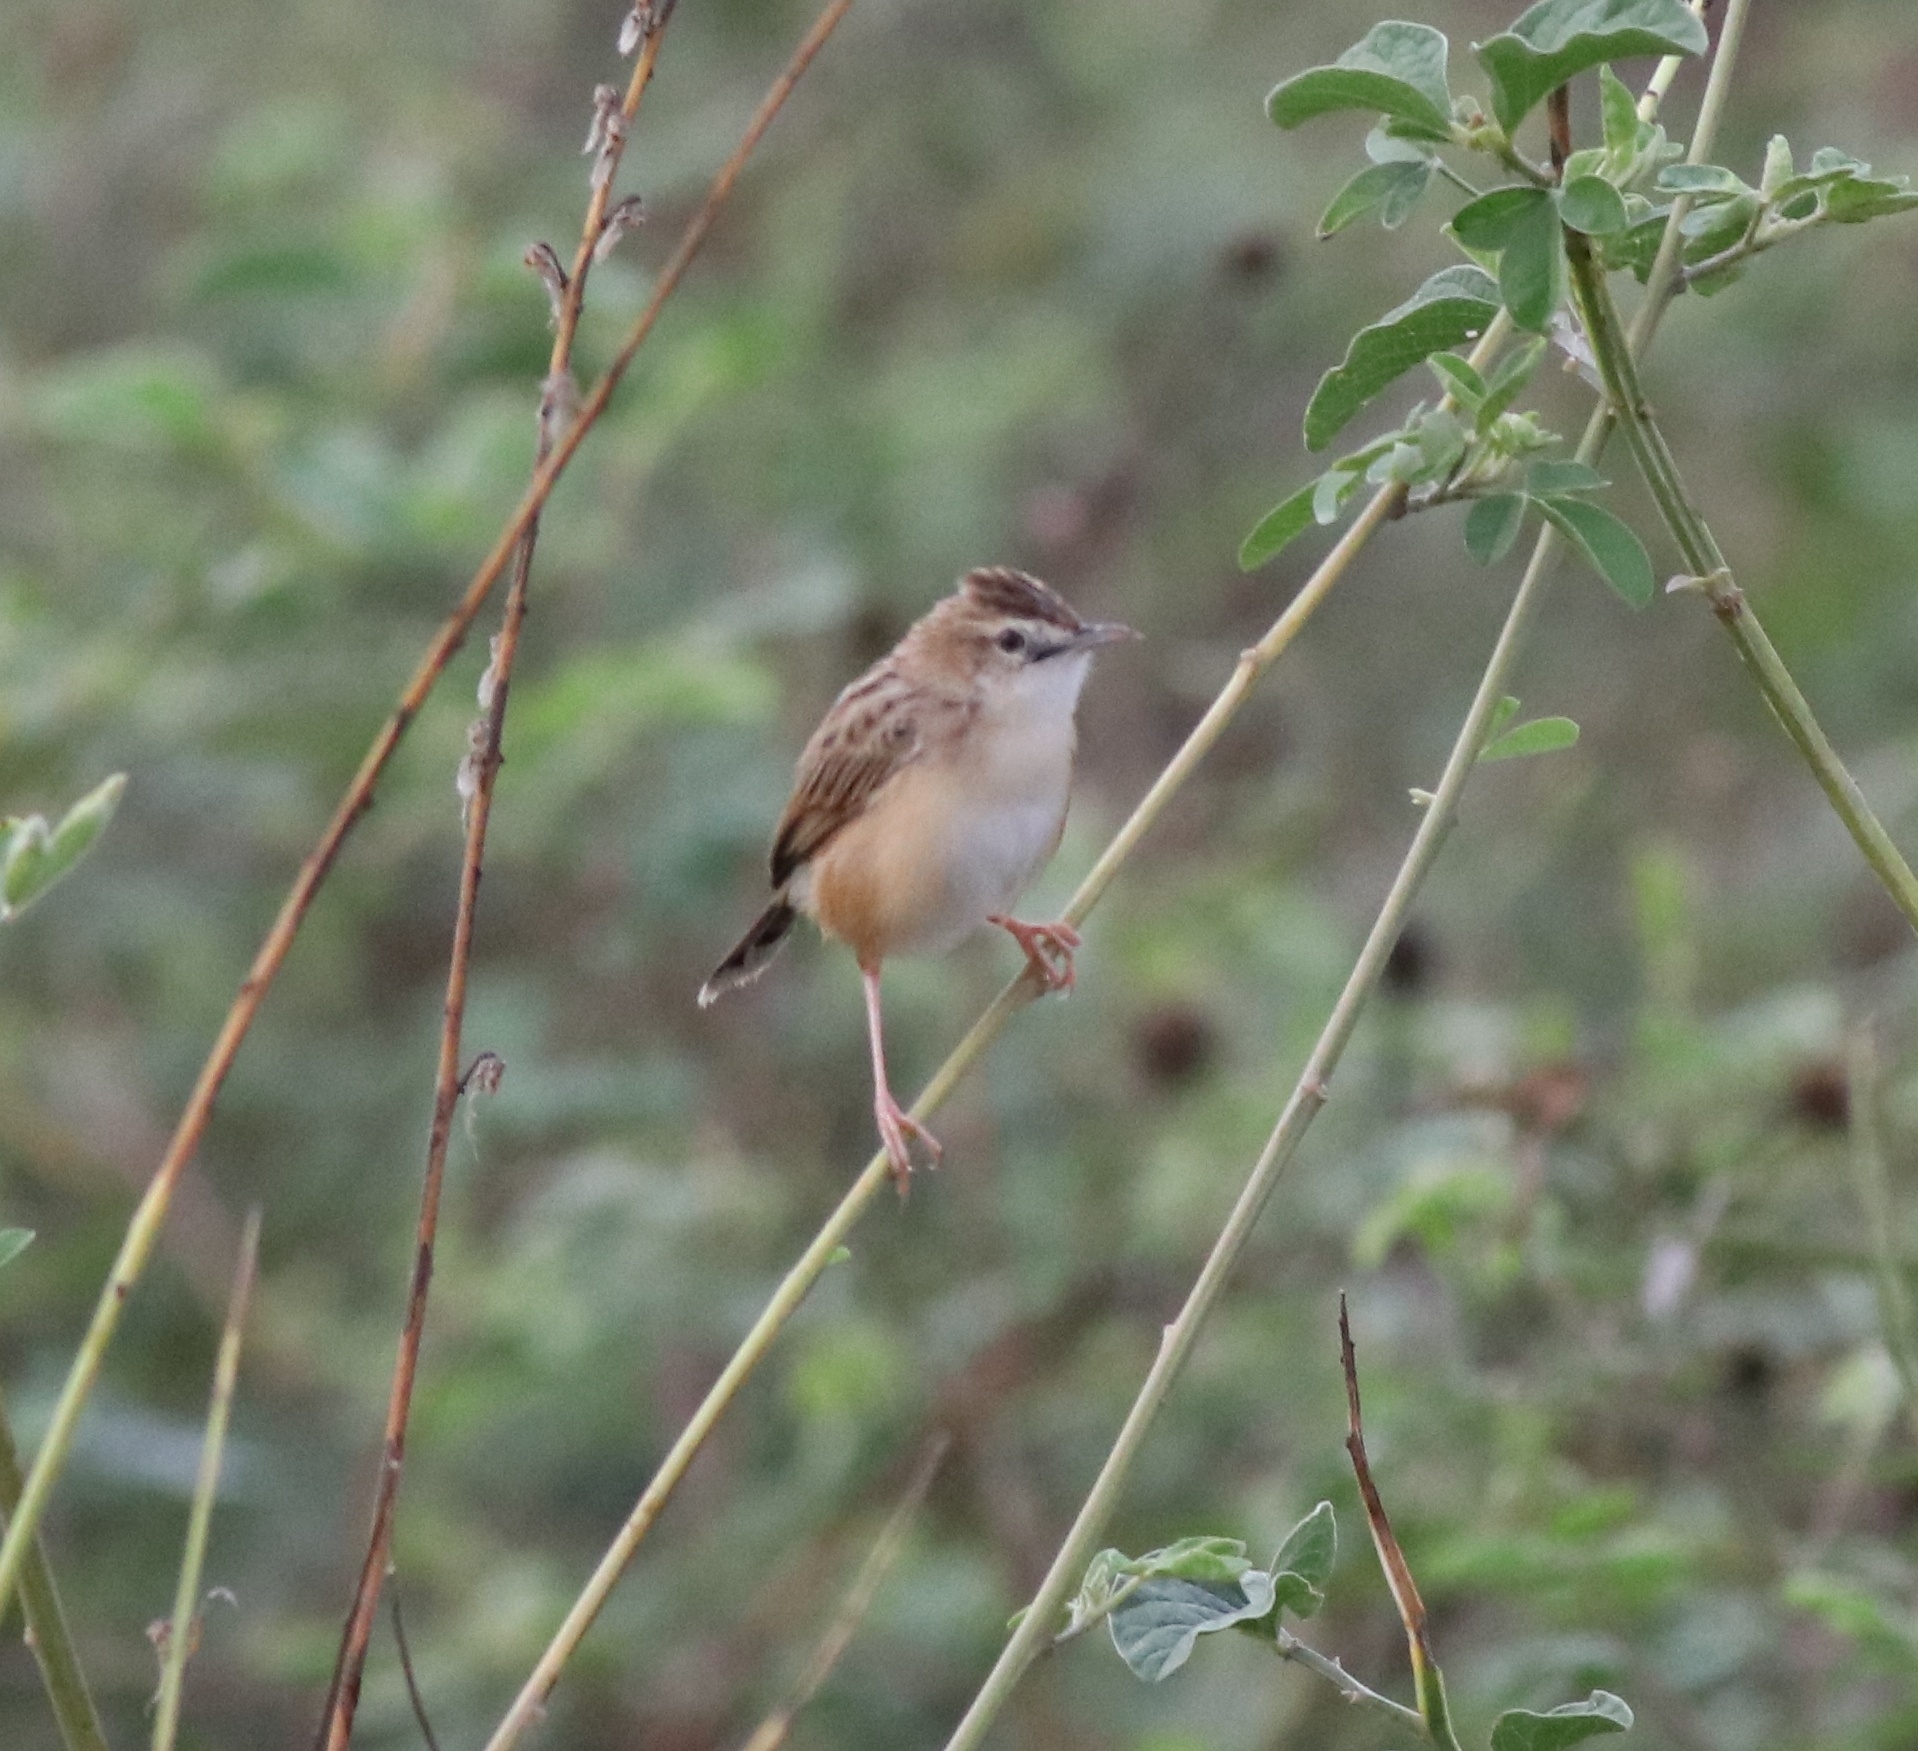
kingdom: Animalia
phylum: Chordata
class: Aves
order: Passeriformes
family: Cisticolidae
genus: Cisticola
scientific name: Cisticola juncidis
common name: Zitting cisticola
